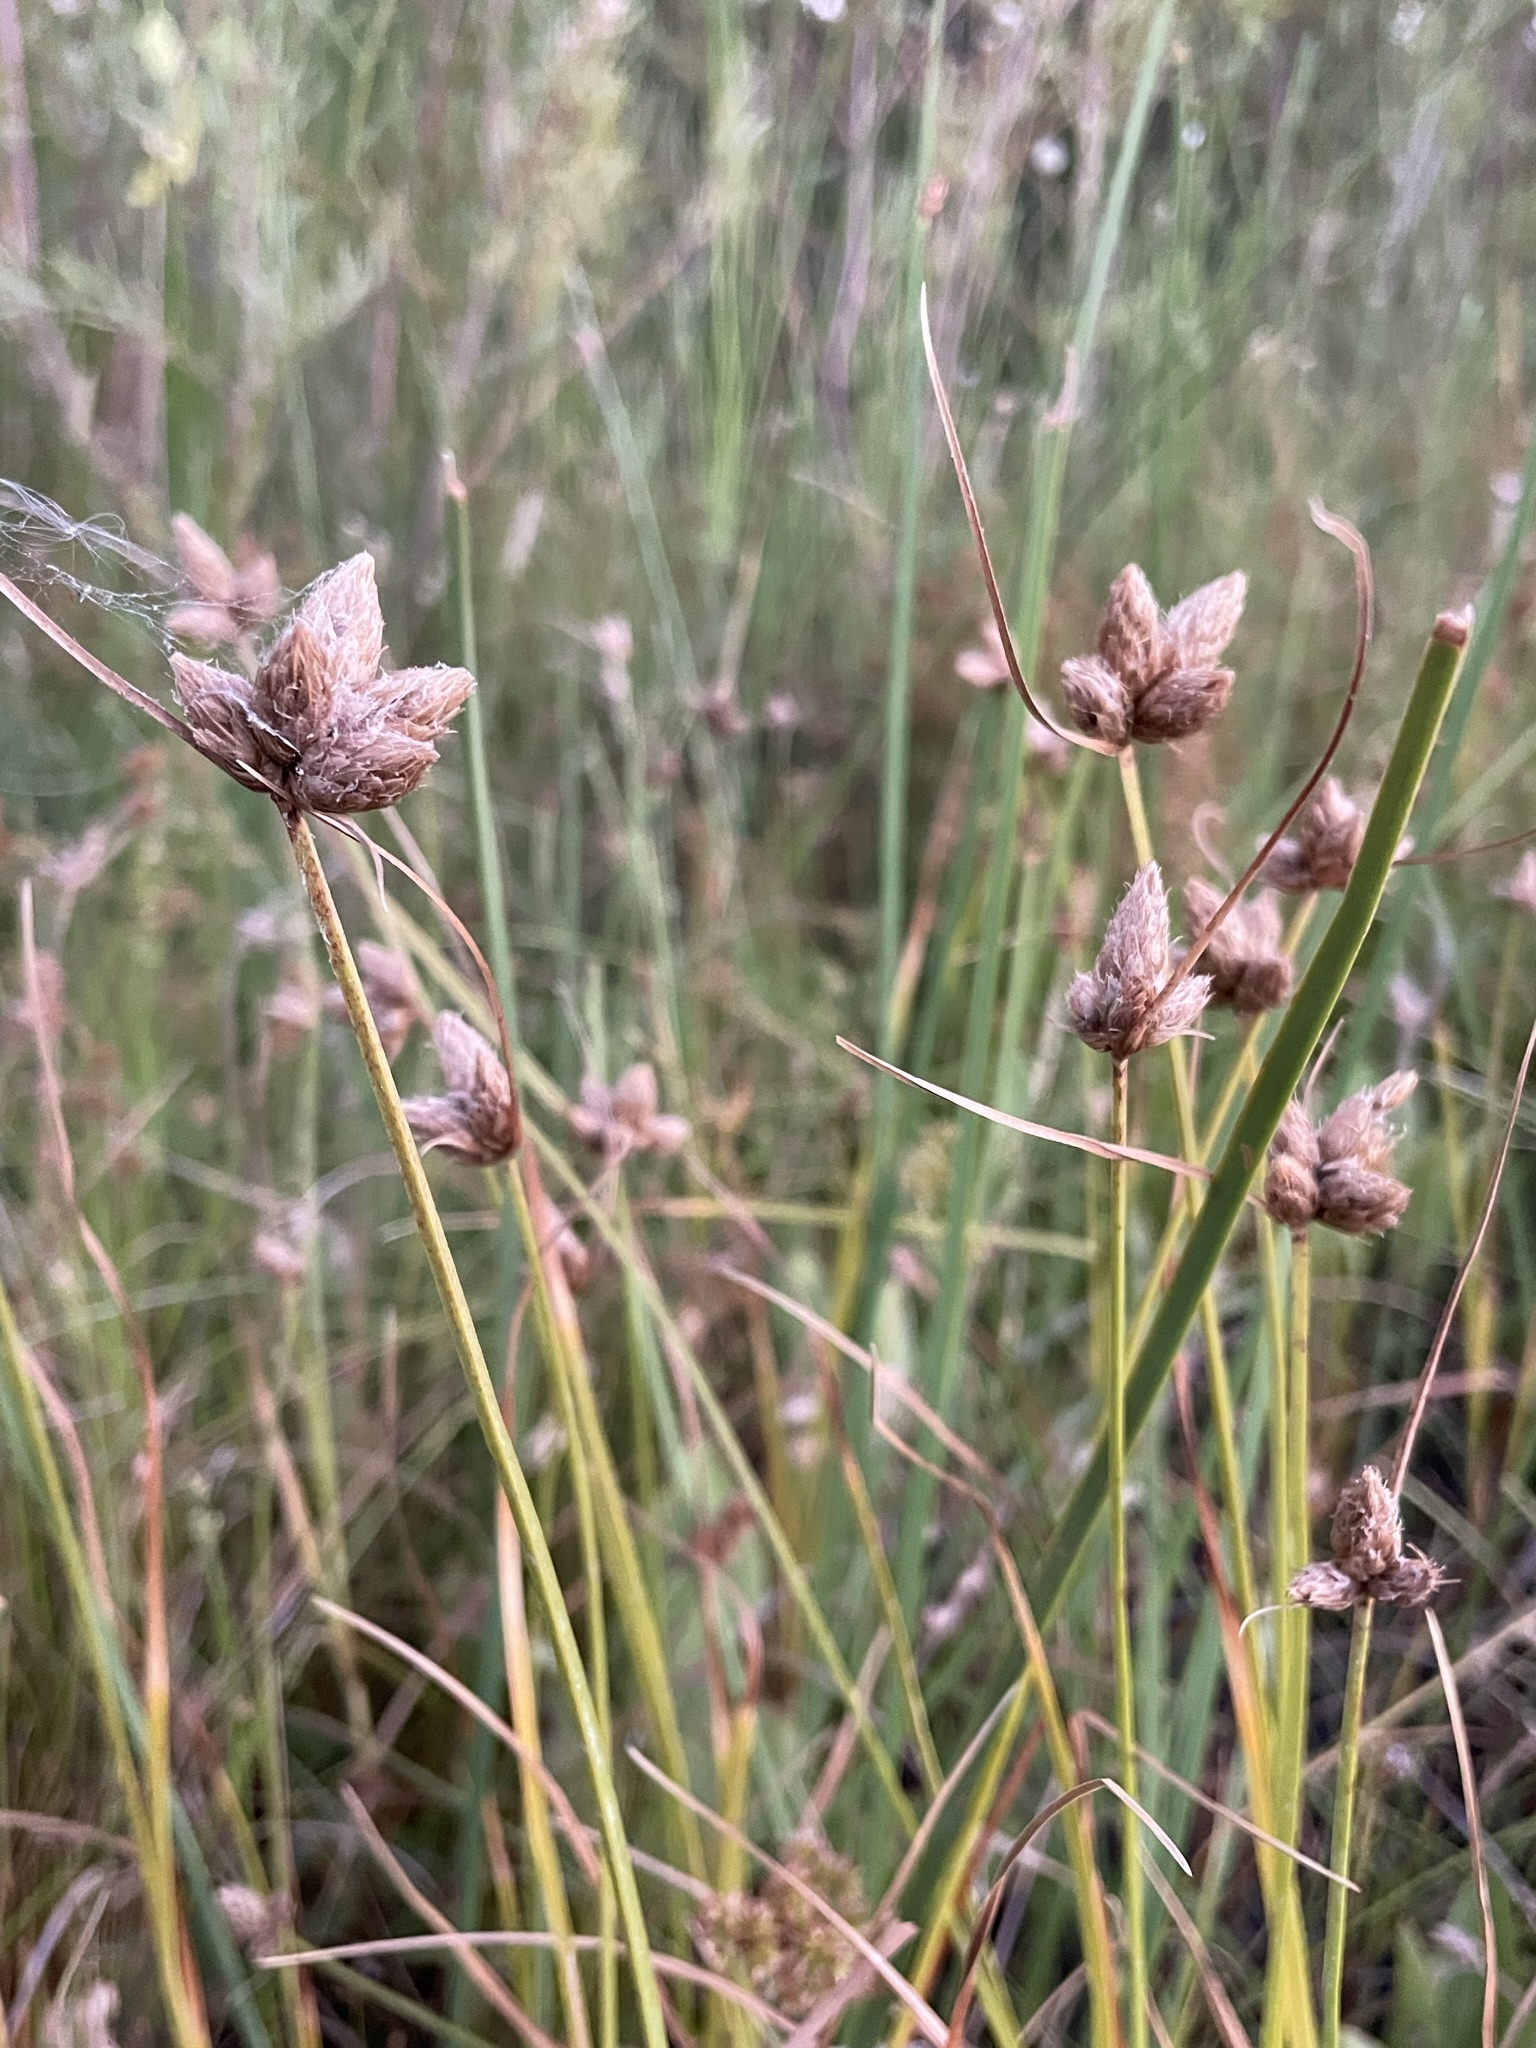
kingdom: Plantae
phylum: Tracheophyta
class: Liliopsida
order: Poales
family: Cyperaceae
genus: Bolboschoenus
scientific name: Bolboschoenus maritimus
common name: Sea club-rush
